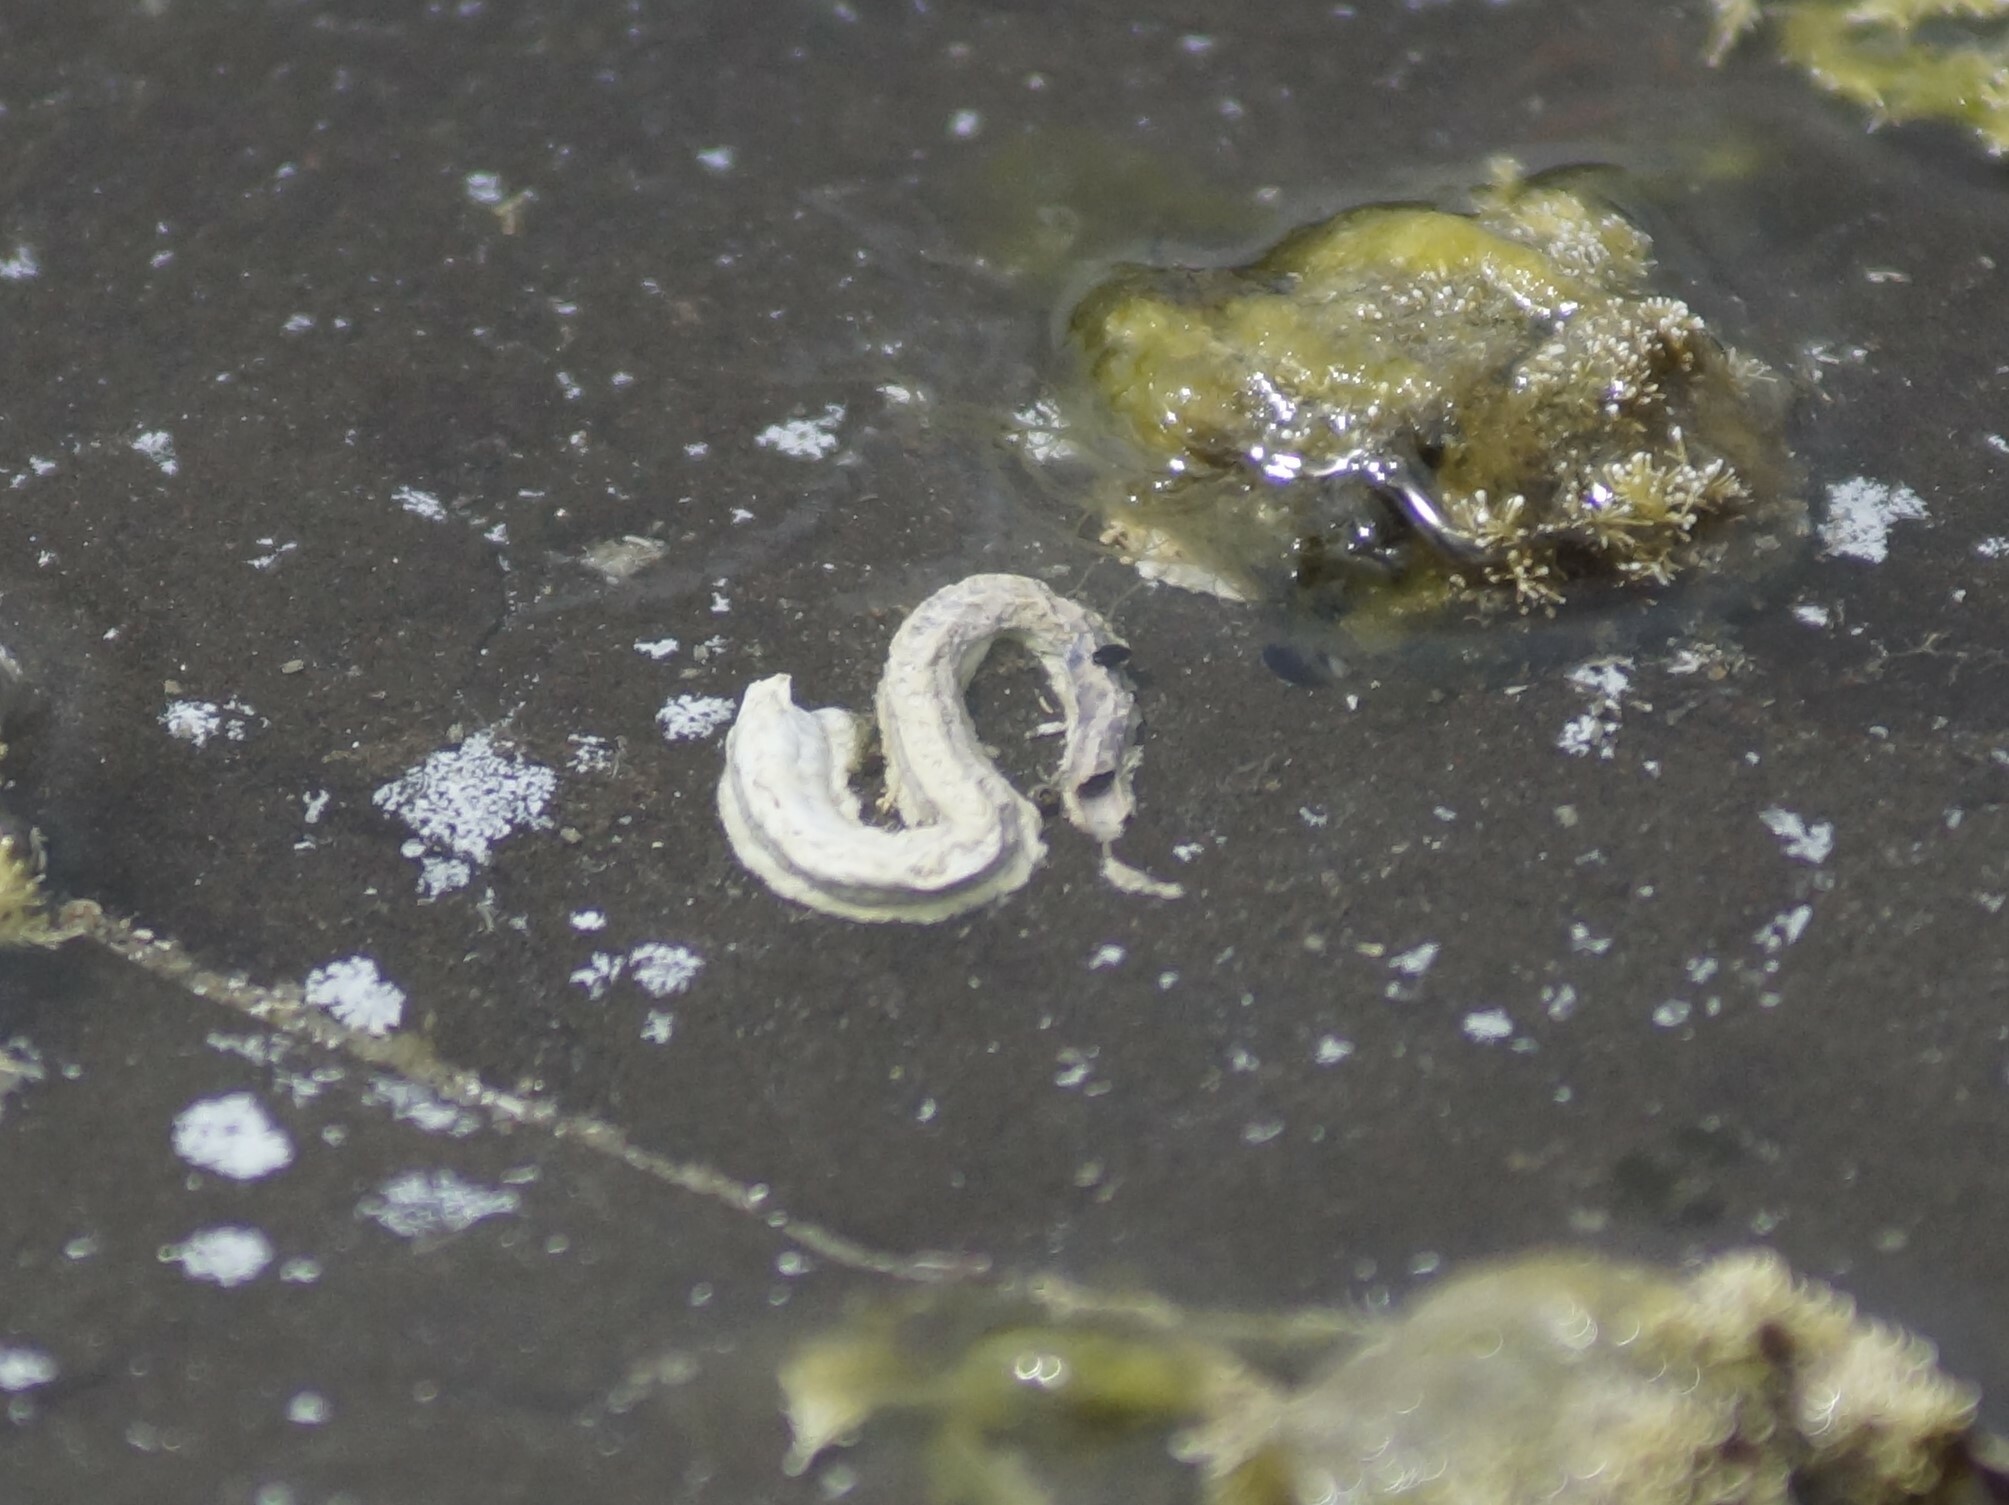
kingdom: Animalia
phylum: Annelida
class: Polychaeta
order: Sabellida
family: Serpulidae
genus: Spirobranchus
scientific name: Spirobranchus cariniferus
